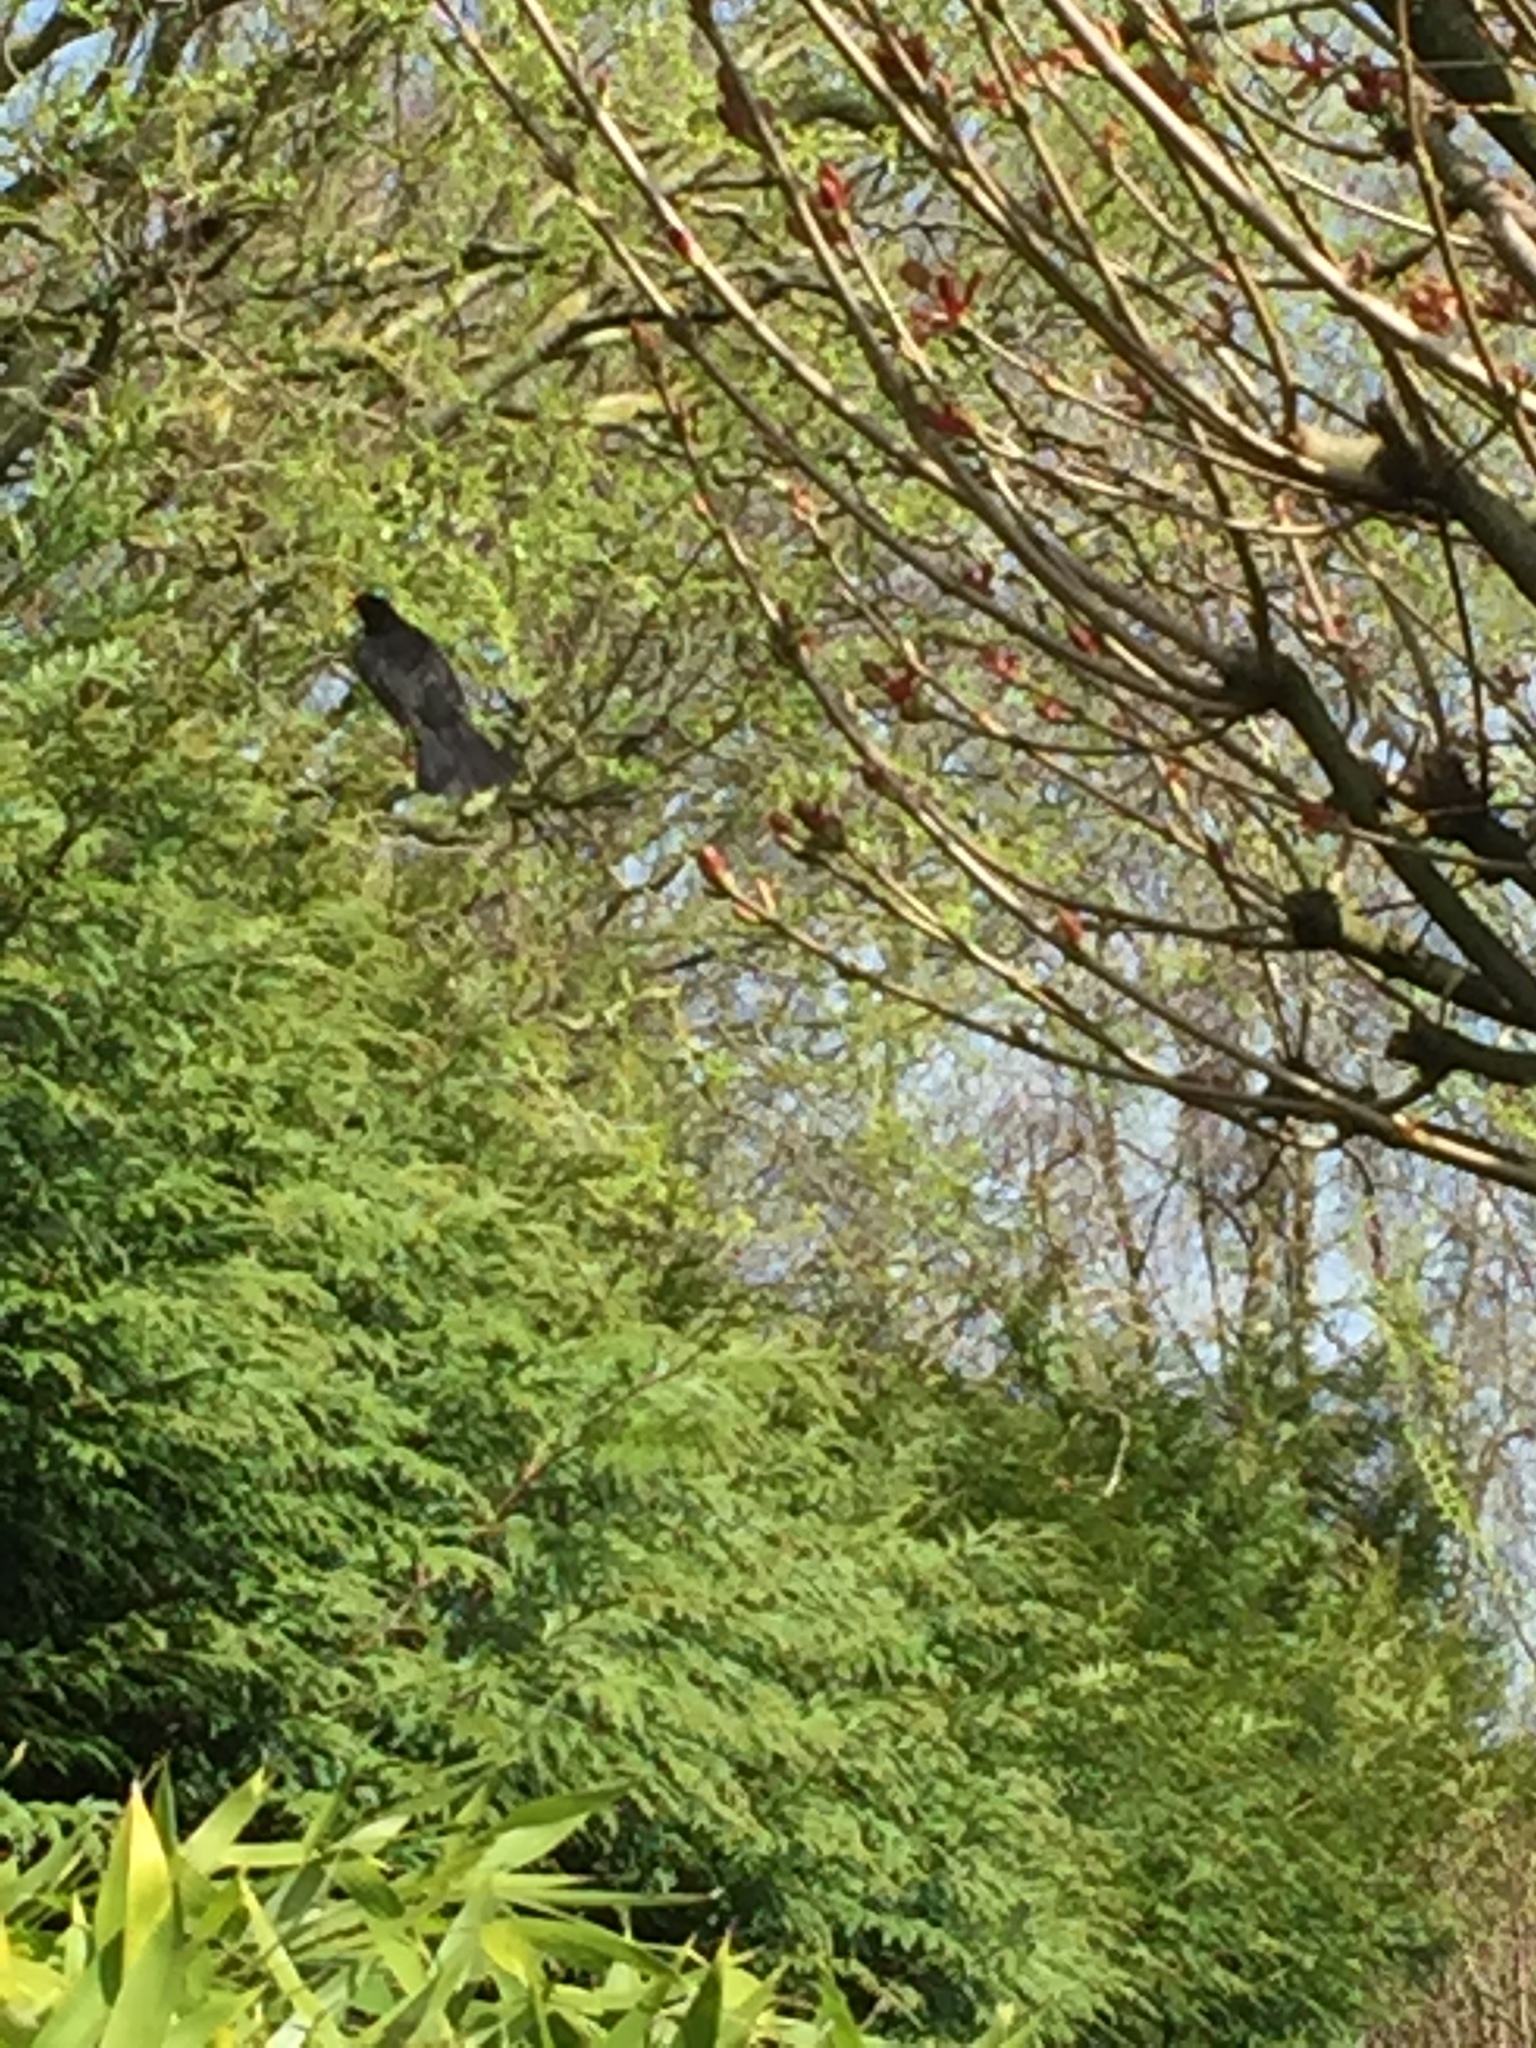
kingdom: Animalia
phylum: Chordata
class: Aves
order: Passeriformes
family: Turdidae
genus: Turdus
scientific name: Turdus merula
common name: Common blackbird
